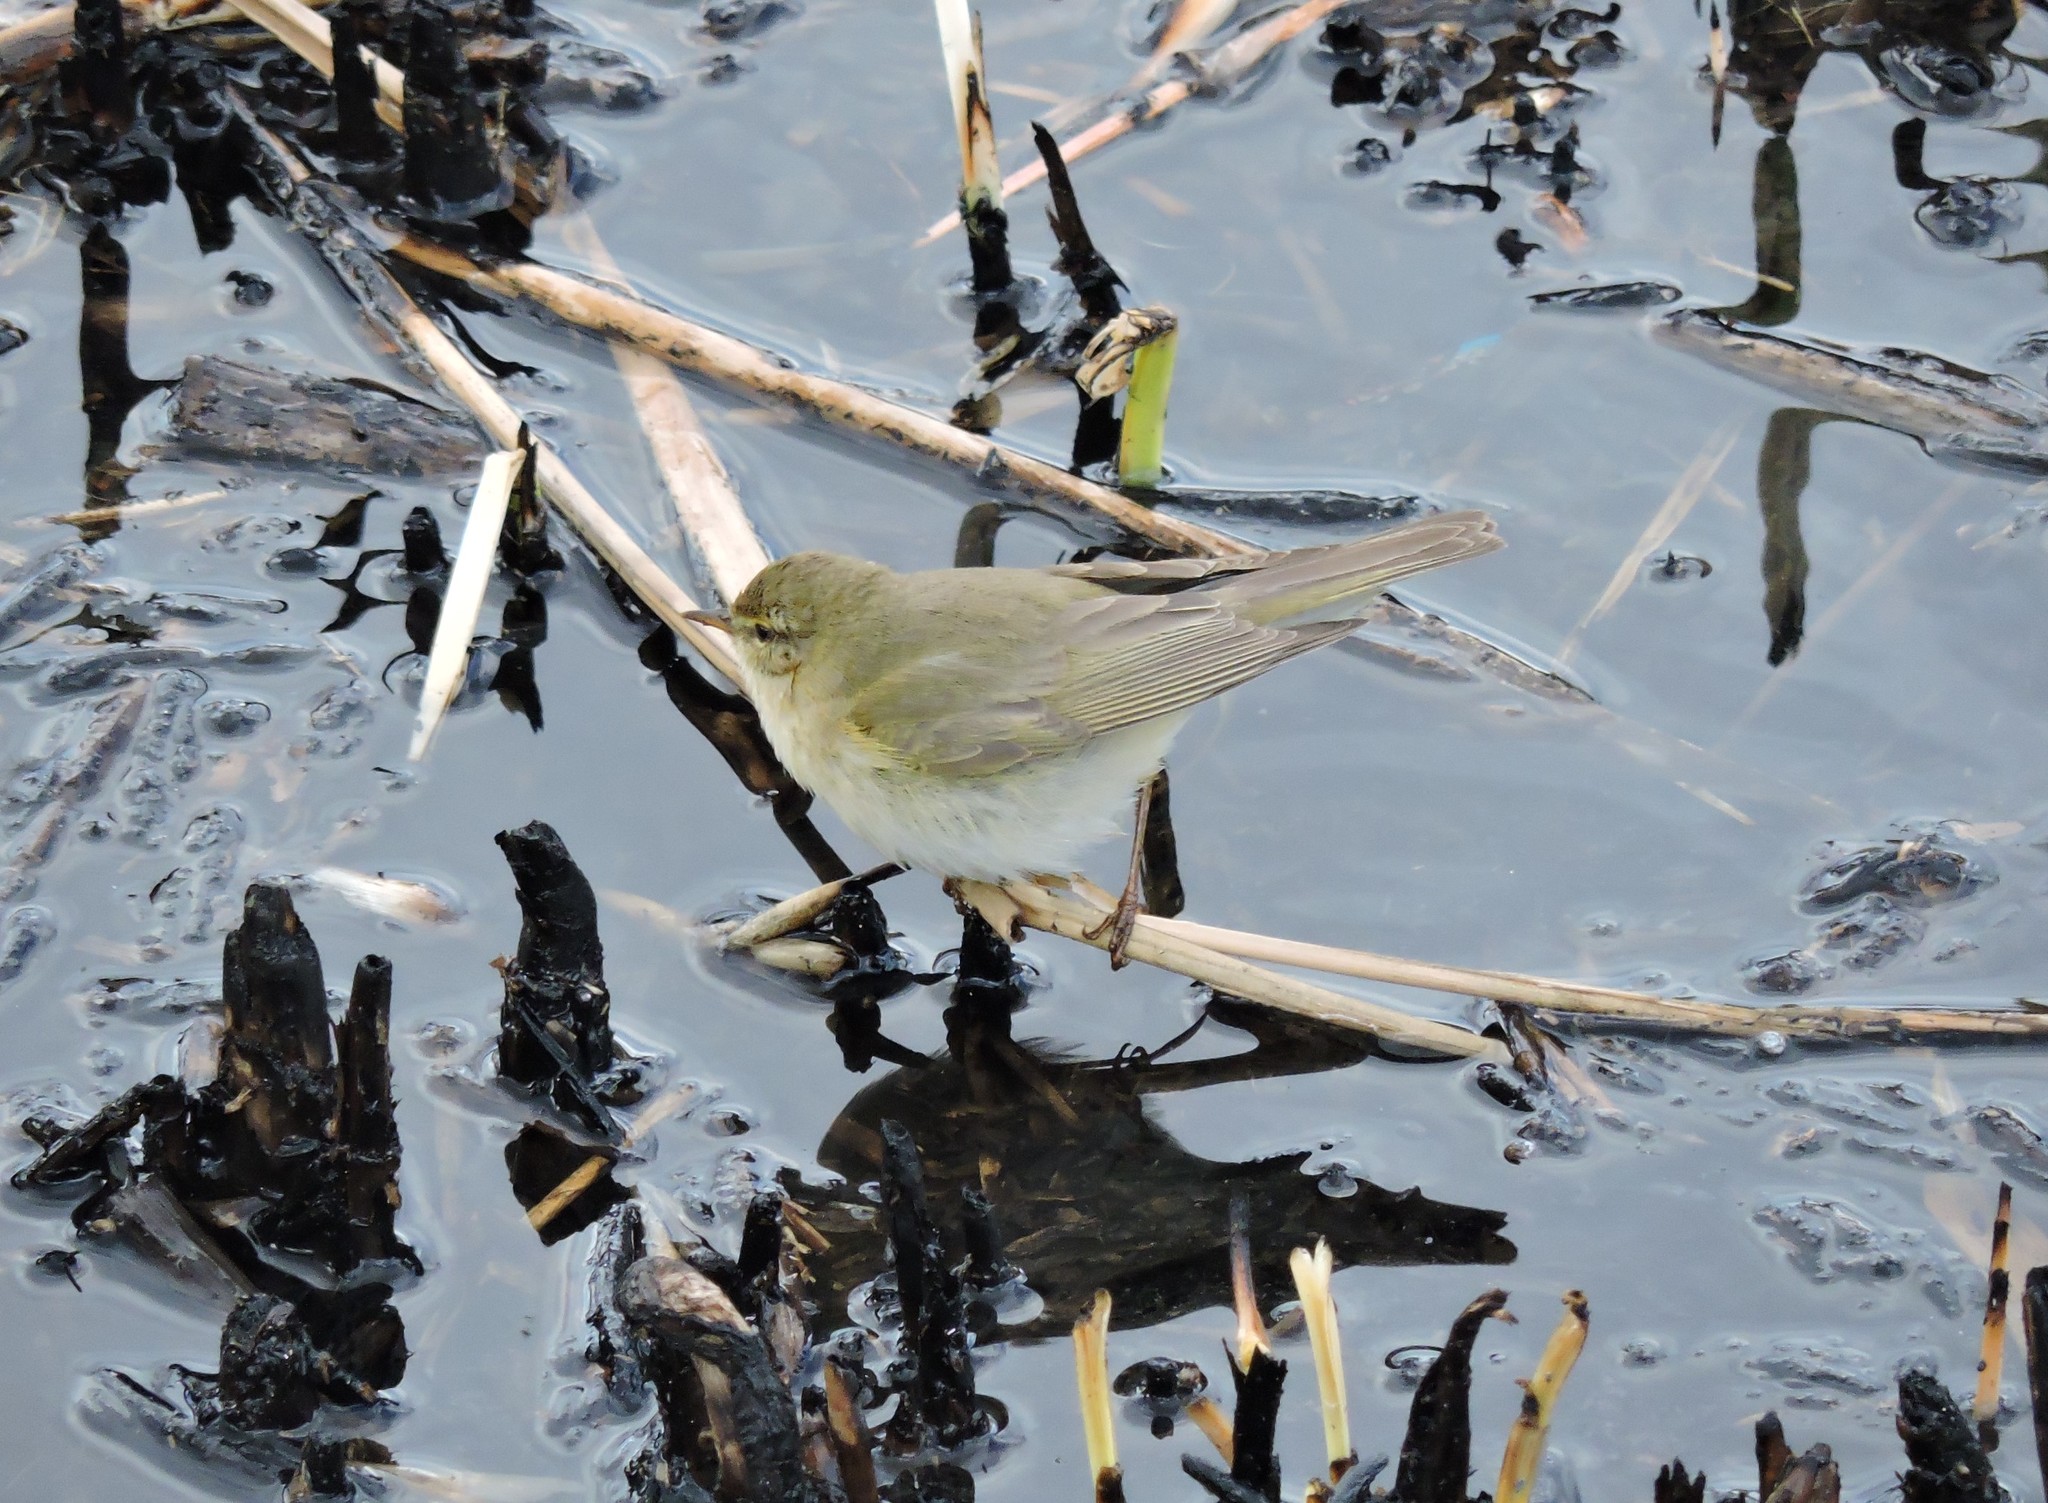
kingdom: Animalia
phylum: Chordata
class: Aves
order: Passeriformes
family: Phylloscopidae
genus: Phylloscopus
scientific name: Phylloscopus trochilus
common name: Willow warbler
